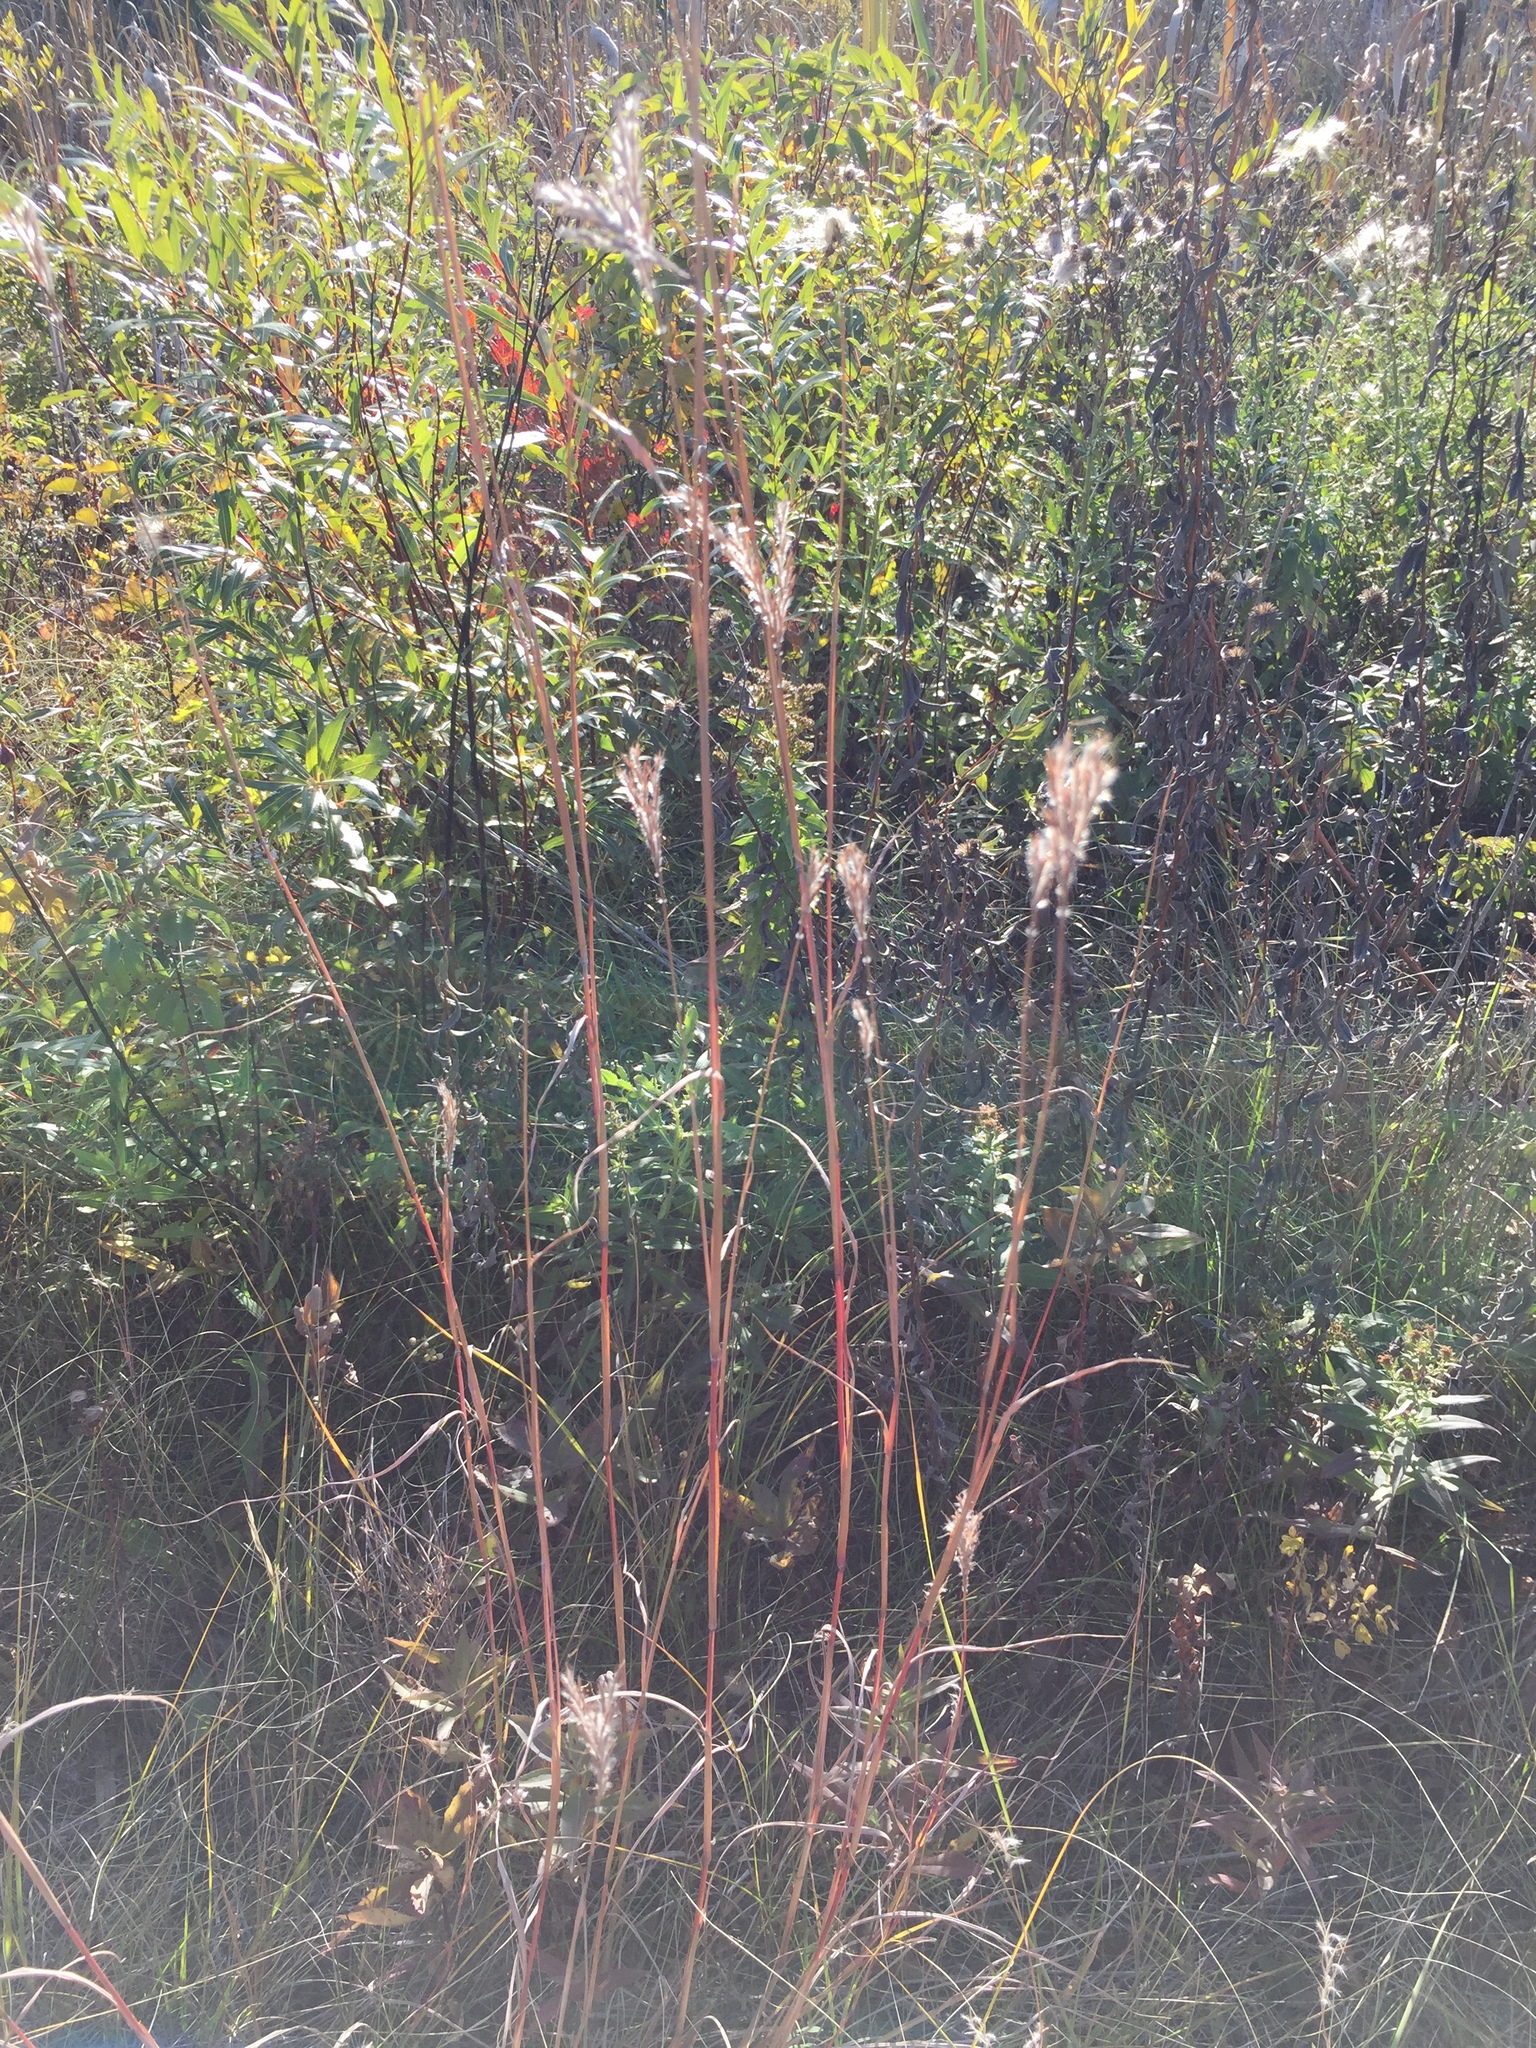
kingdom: Plantae
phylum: Tracheophyta
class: Liliopsida
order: Poales
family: Poaceae
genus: Andropogon
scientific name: Andropogon gerardi
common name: Big bluestem
